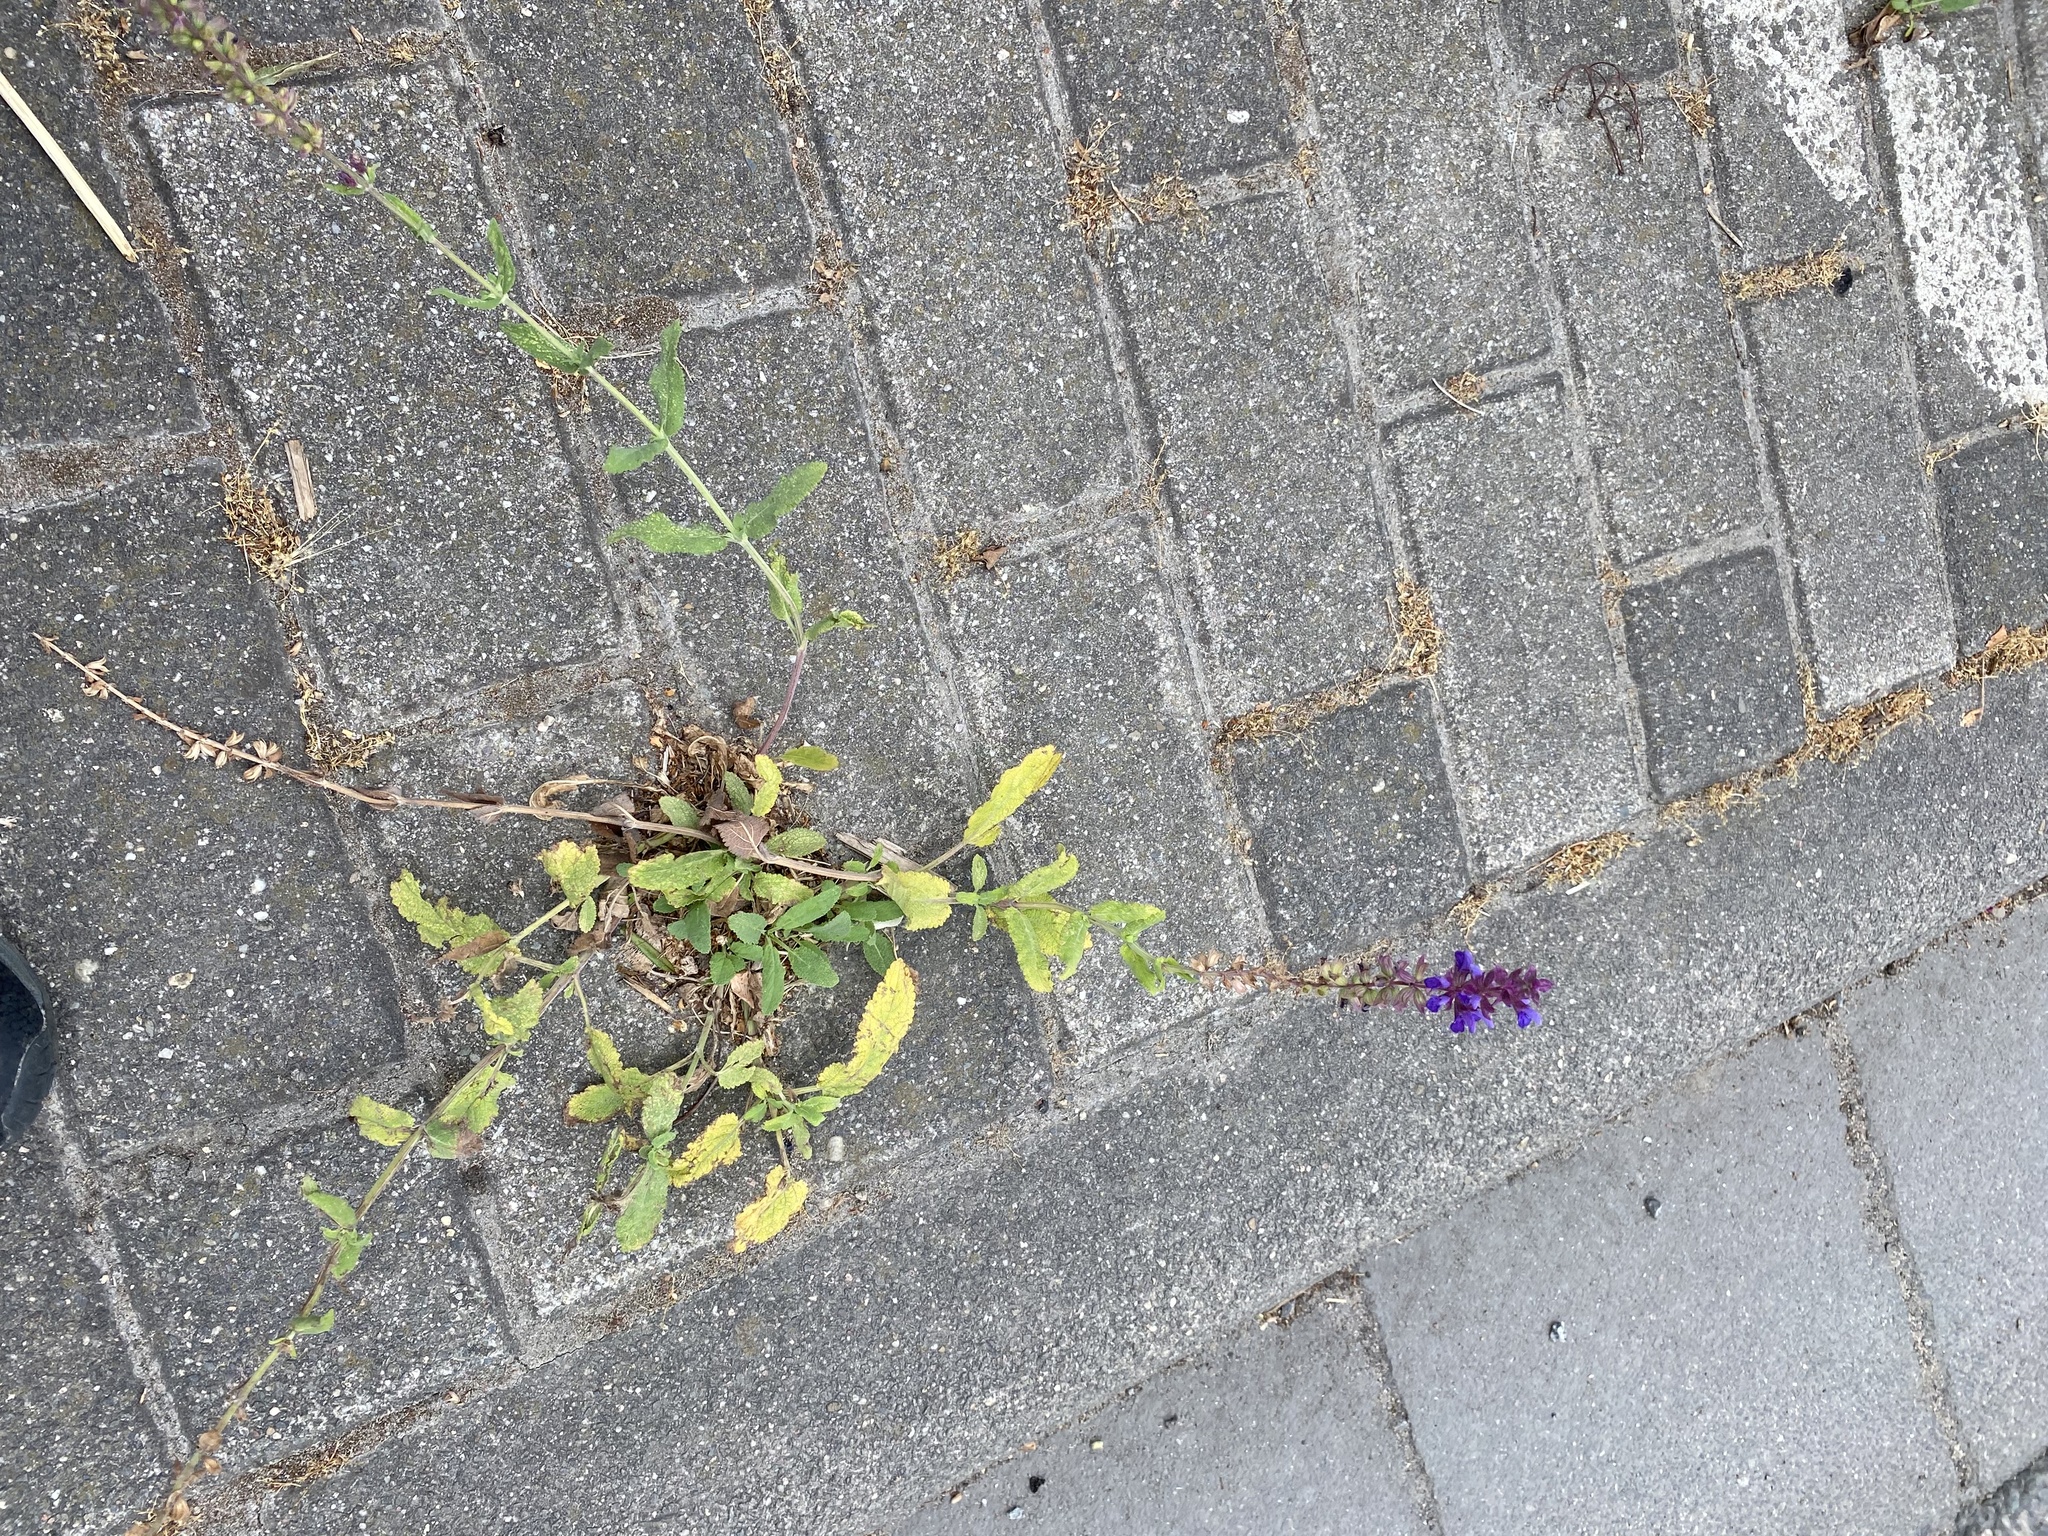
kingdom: Plantae
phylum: Tracheophyta
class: Magnoliopsida
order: Lamiales
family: Lamiaceae
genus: Salvia
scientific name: Salvia nemorosa
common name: Balkan clary
